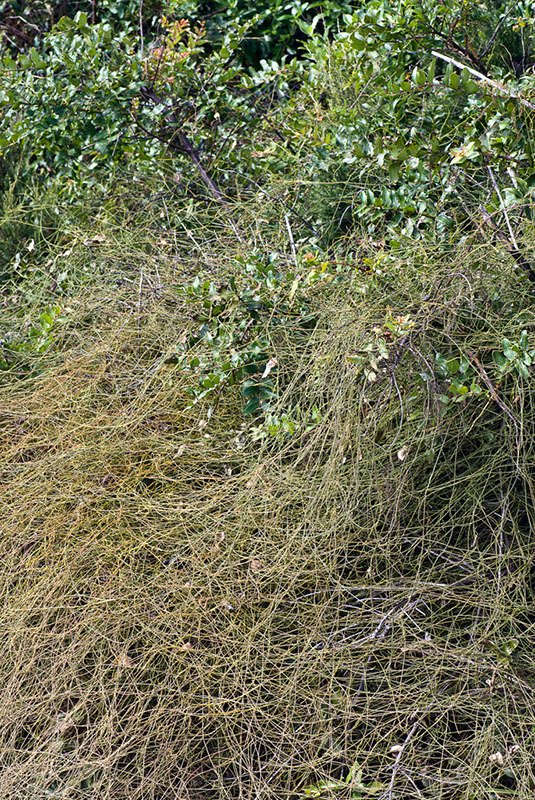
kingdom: Plantae
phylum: Tracheophyta
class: Magnoliopsida
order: Laurales
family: Lauraceae
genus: Cassytha
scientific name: Cassytha paniculata
